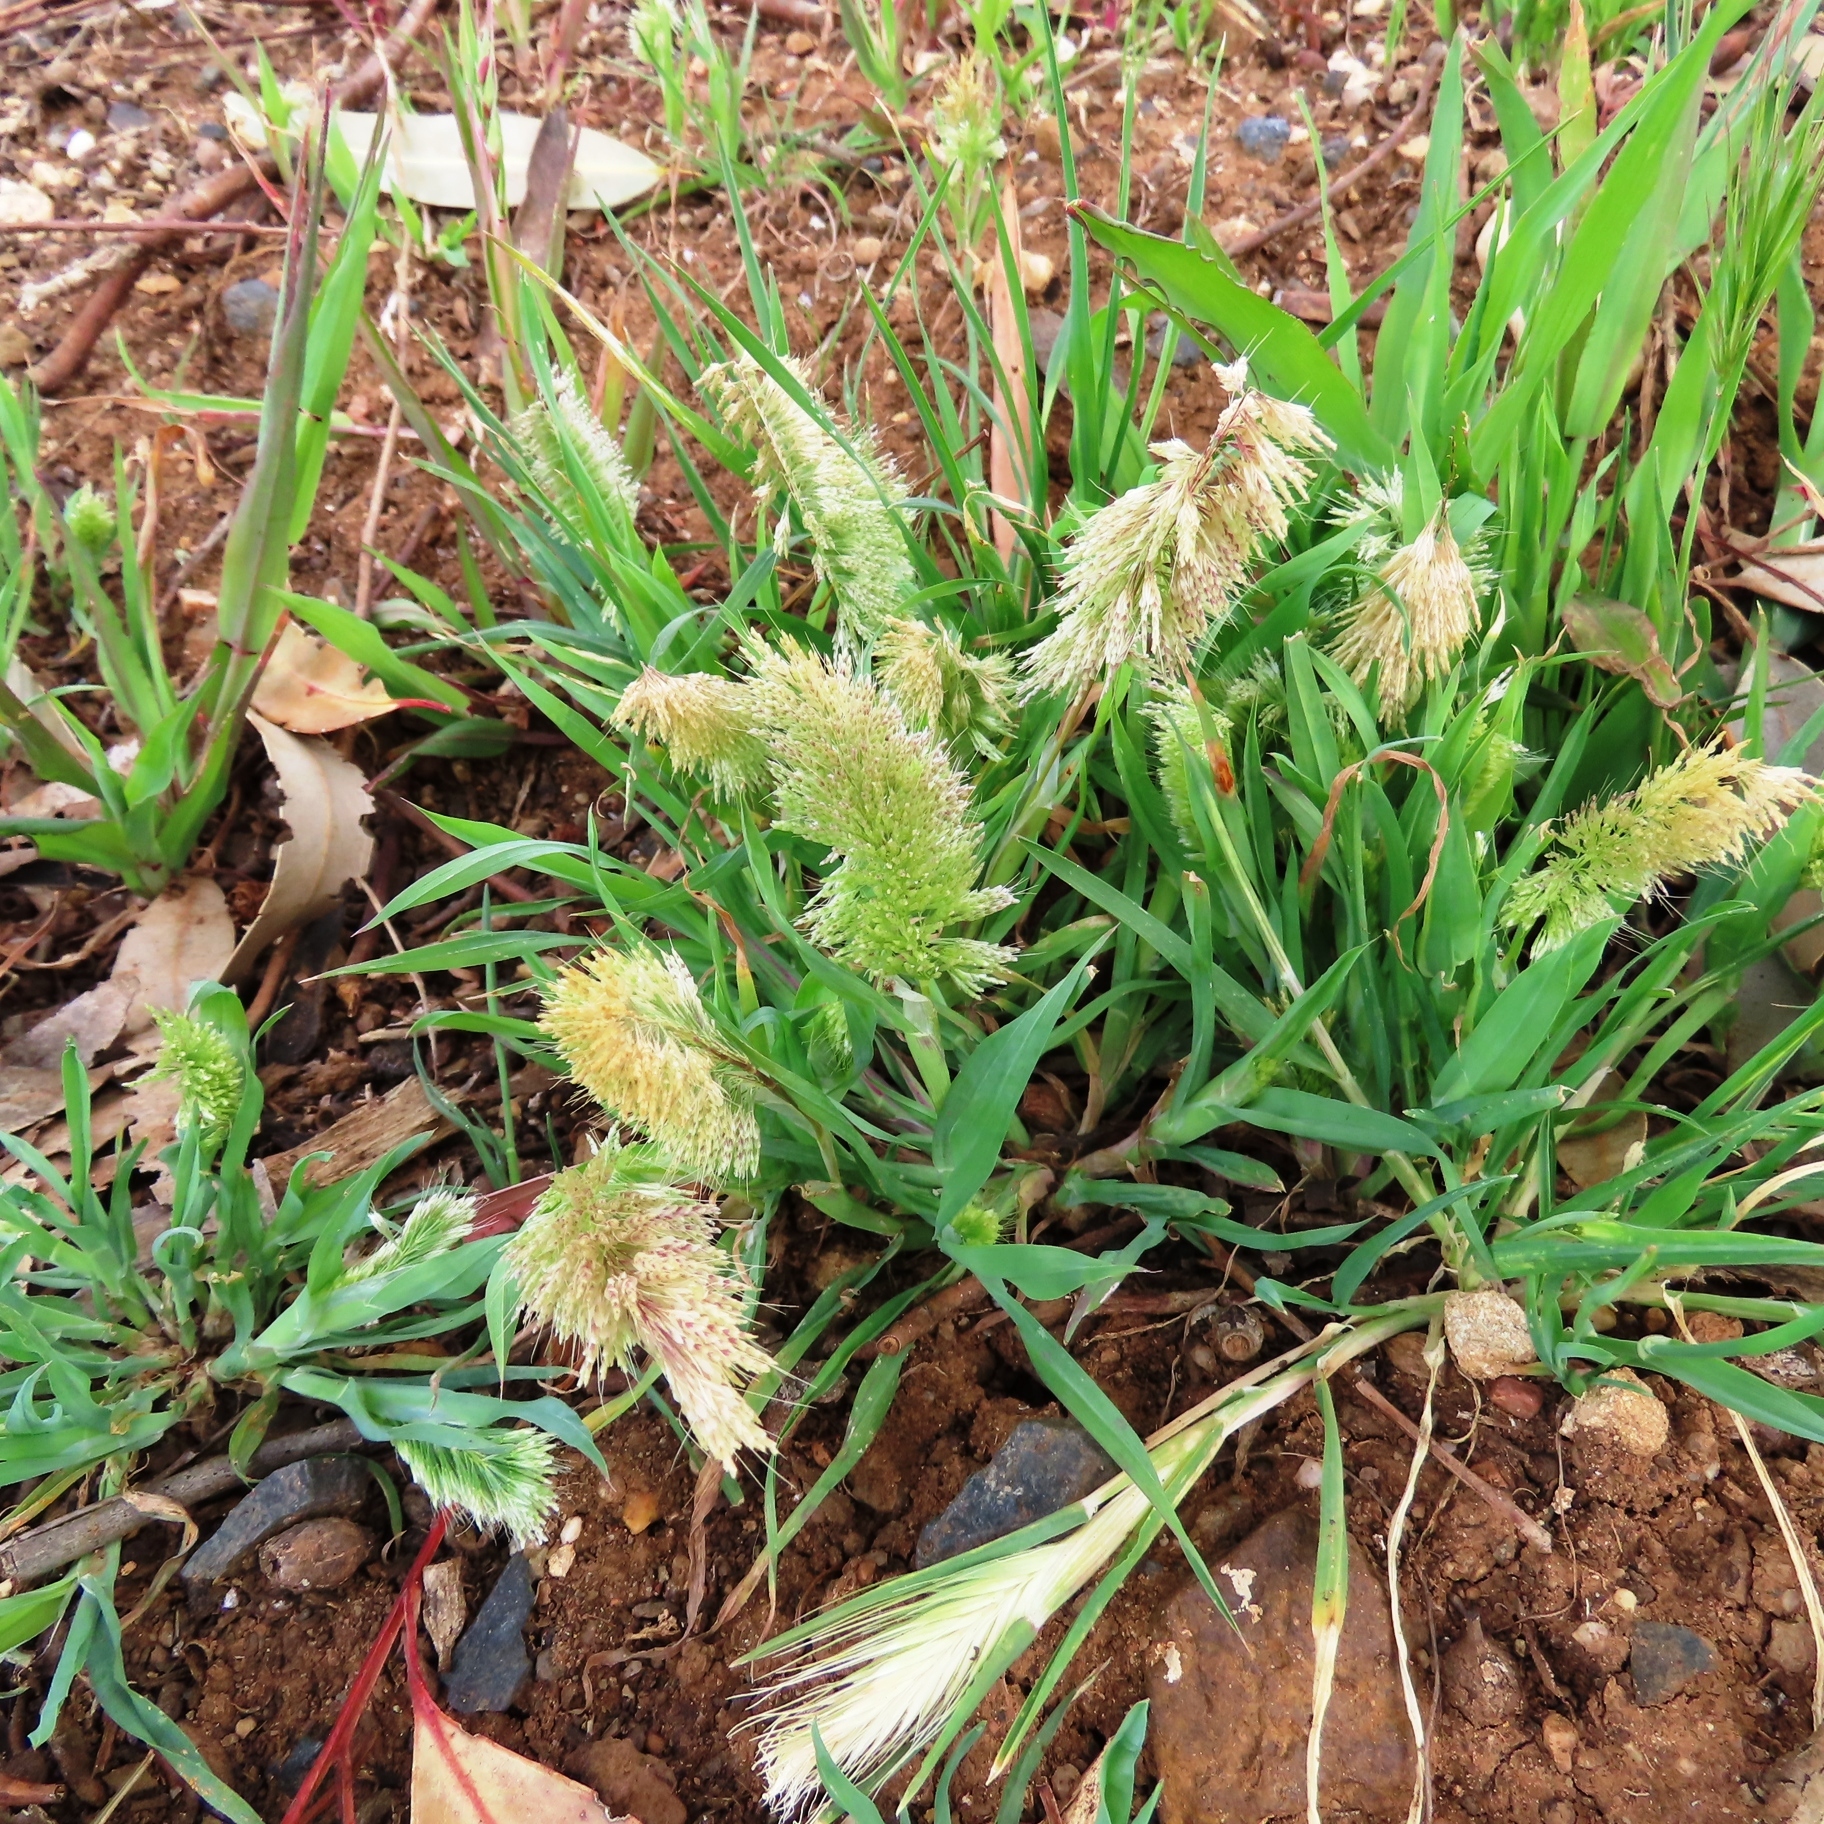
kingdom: Plantae
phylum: Tracheophyta
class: Liliopsida
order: Poales
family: Poaceae
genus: Lamarckia
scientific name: Lamarckia aurea
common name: Golden dog's-tail
